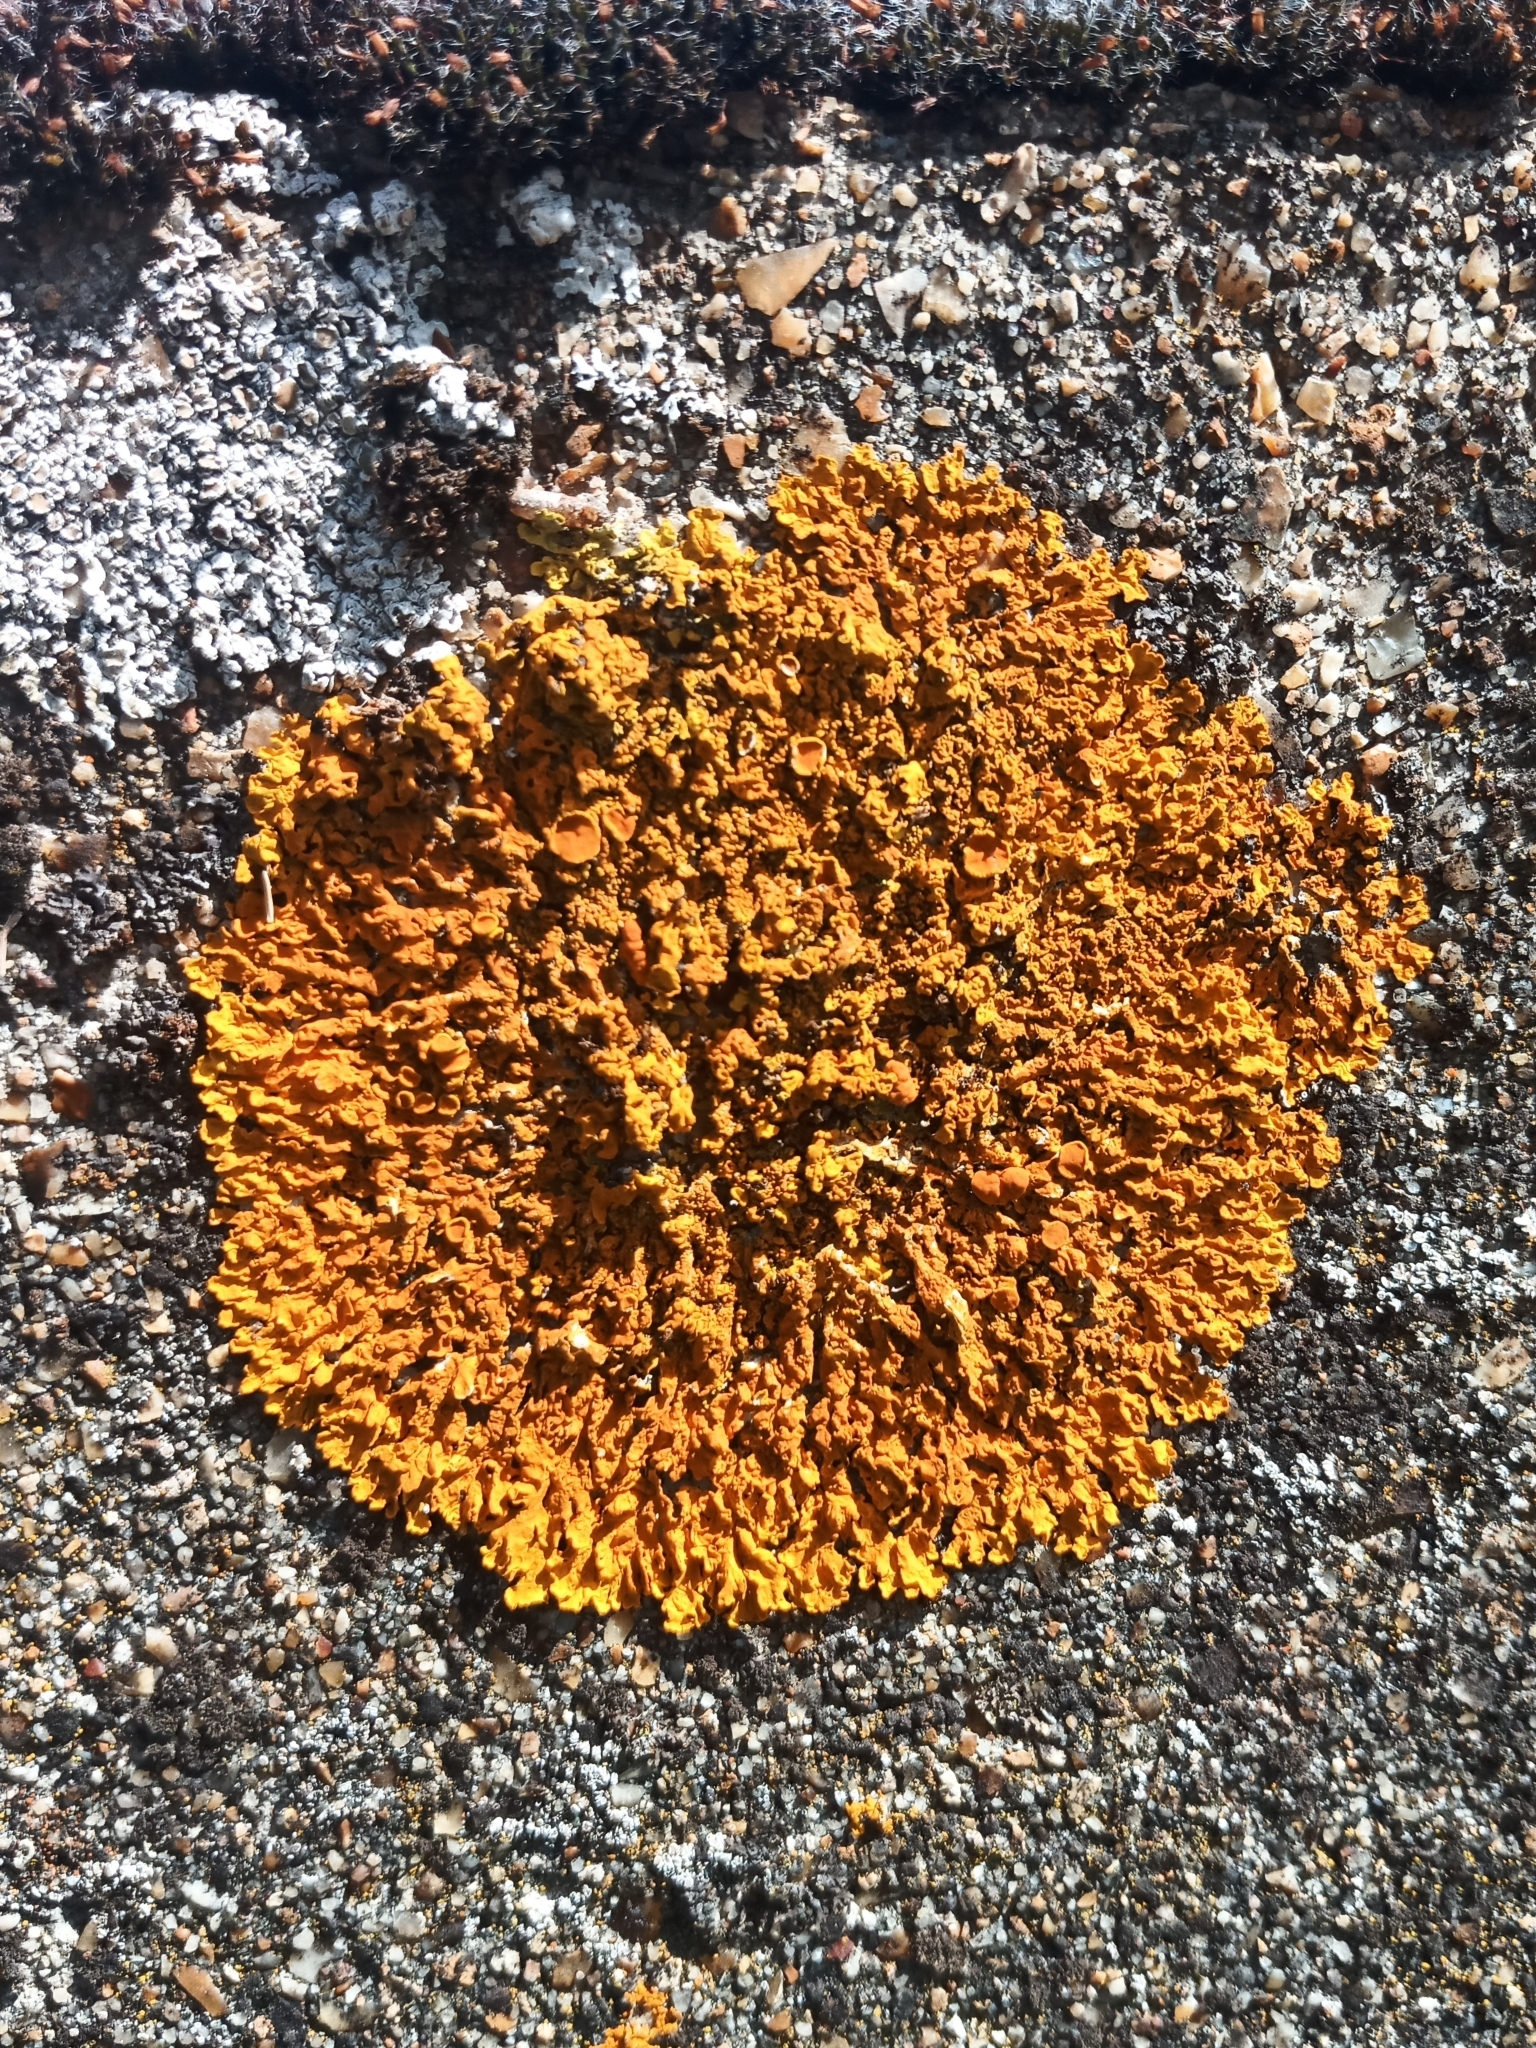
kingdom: Fungi
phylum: Ascomycota
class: Lecanoromycetes
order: Teloschistales
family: Teloschistaceae
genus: Xanthoria
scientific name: Xanthoria calcicola
